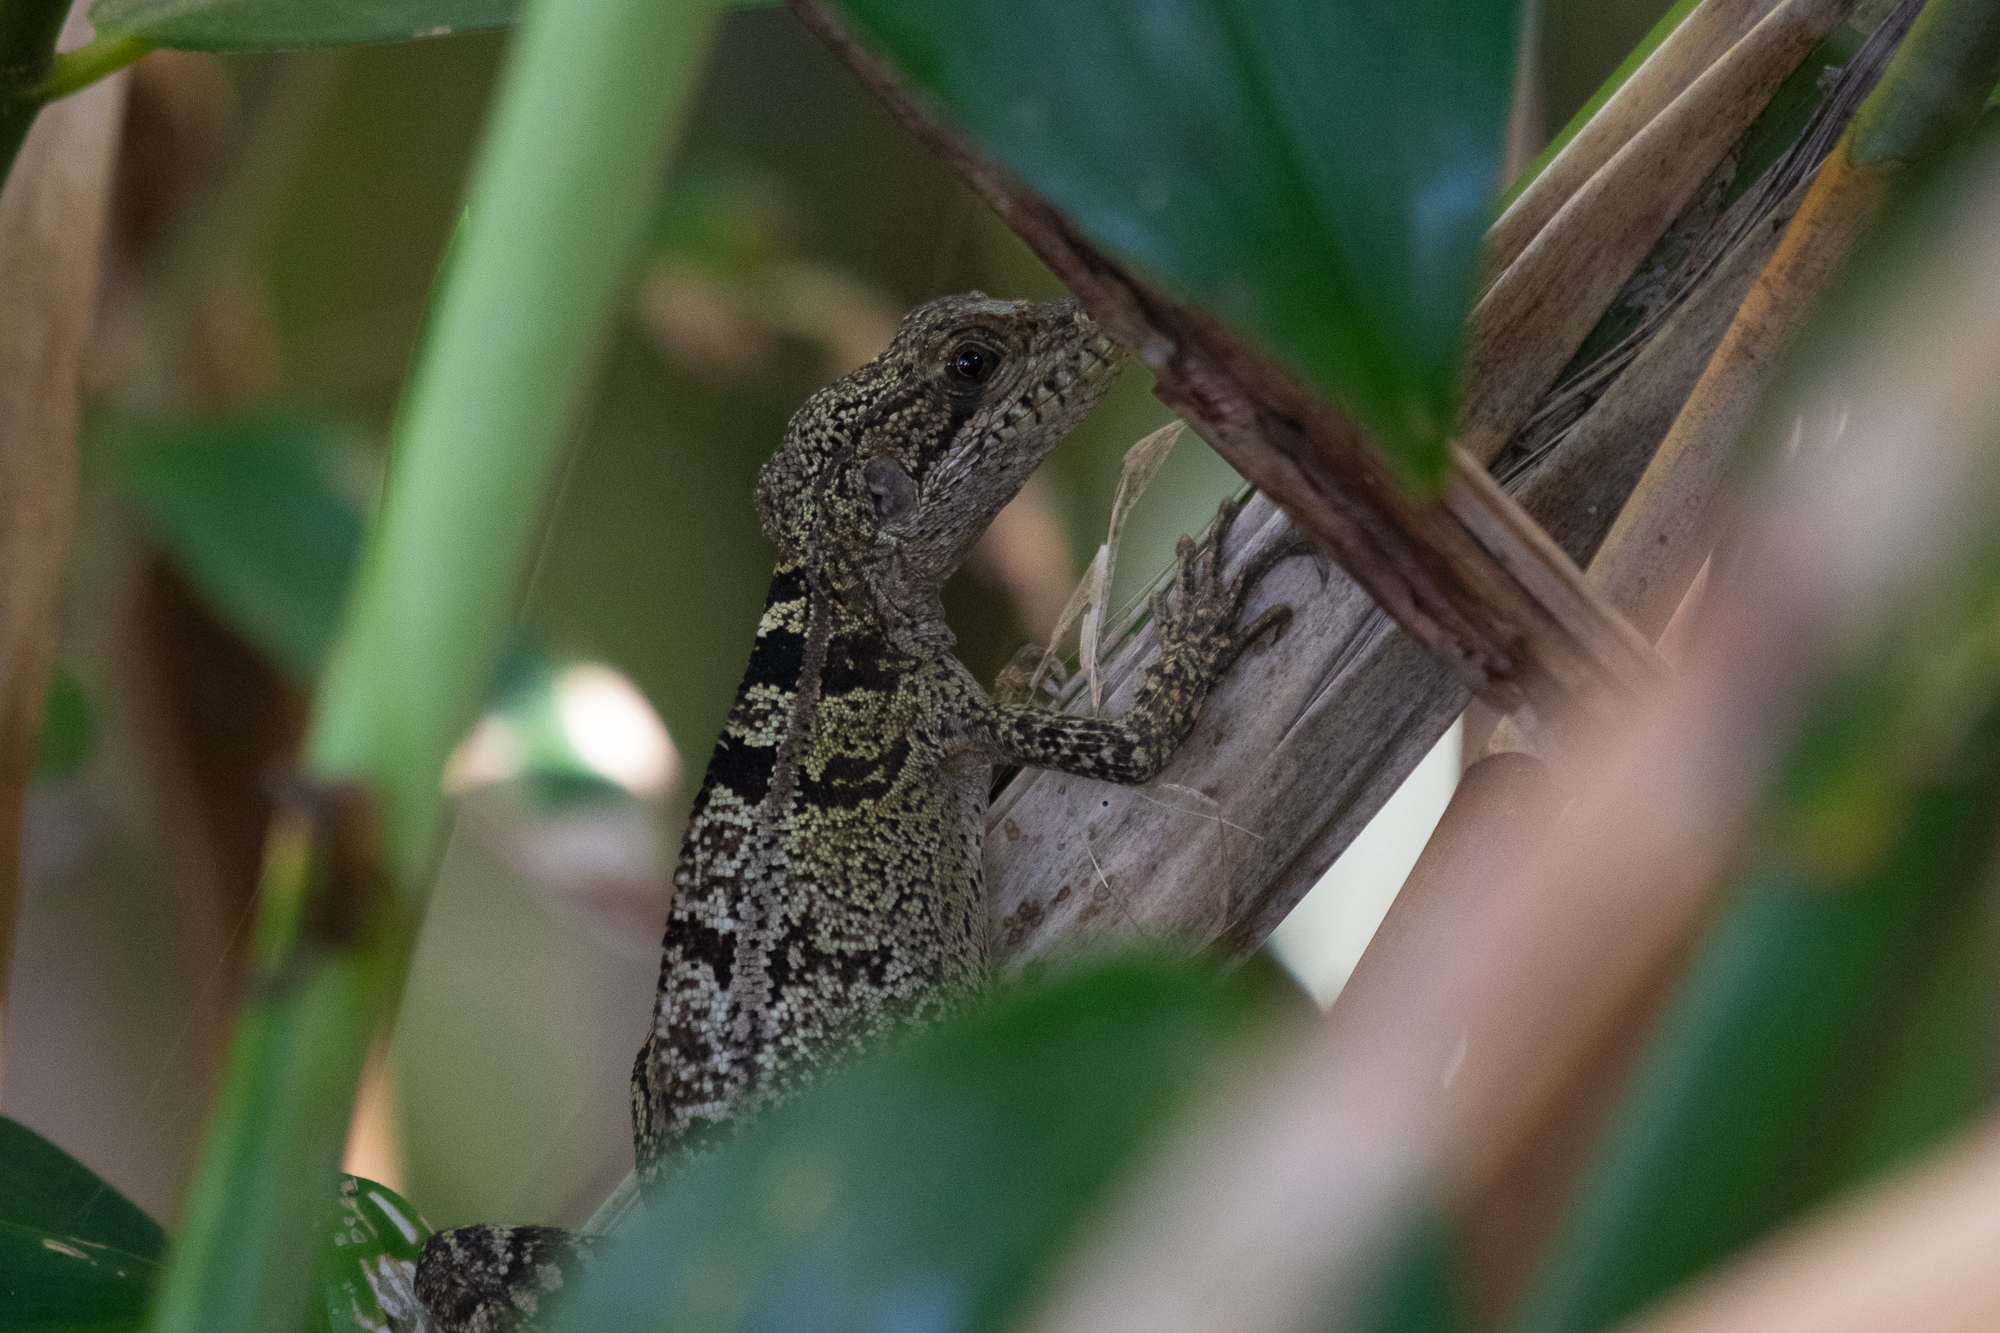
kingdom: Animalia
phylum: Chordata
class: Squamata
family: Corytophanidae
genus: Basiliscus
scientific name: Basiliscus vittatus
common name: Brown basilisk
